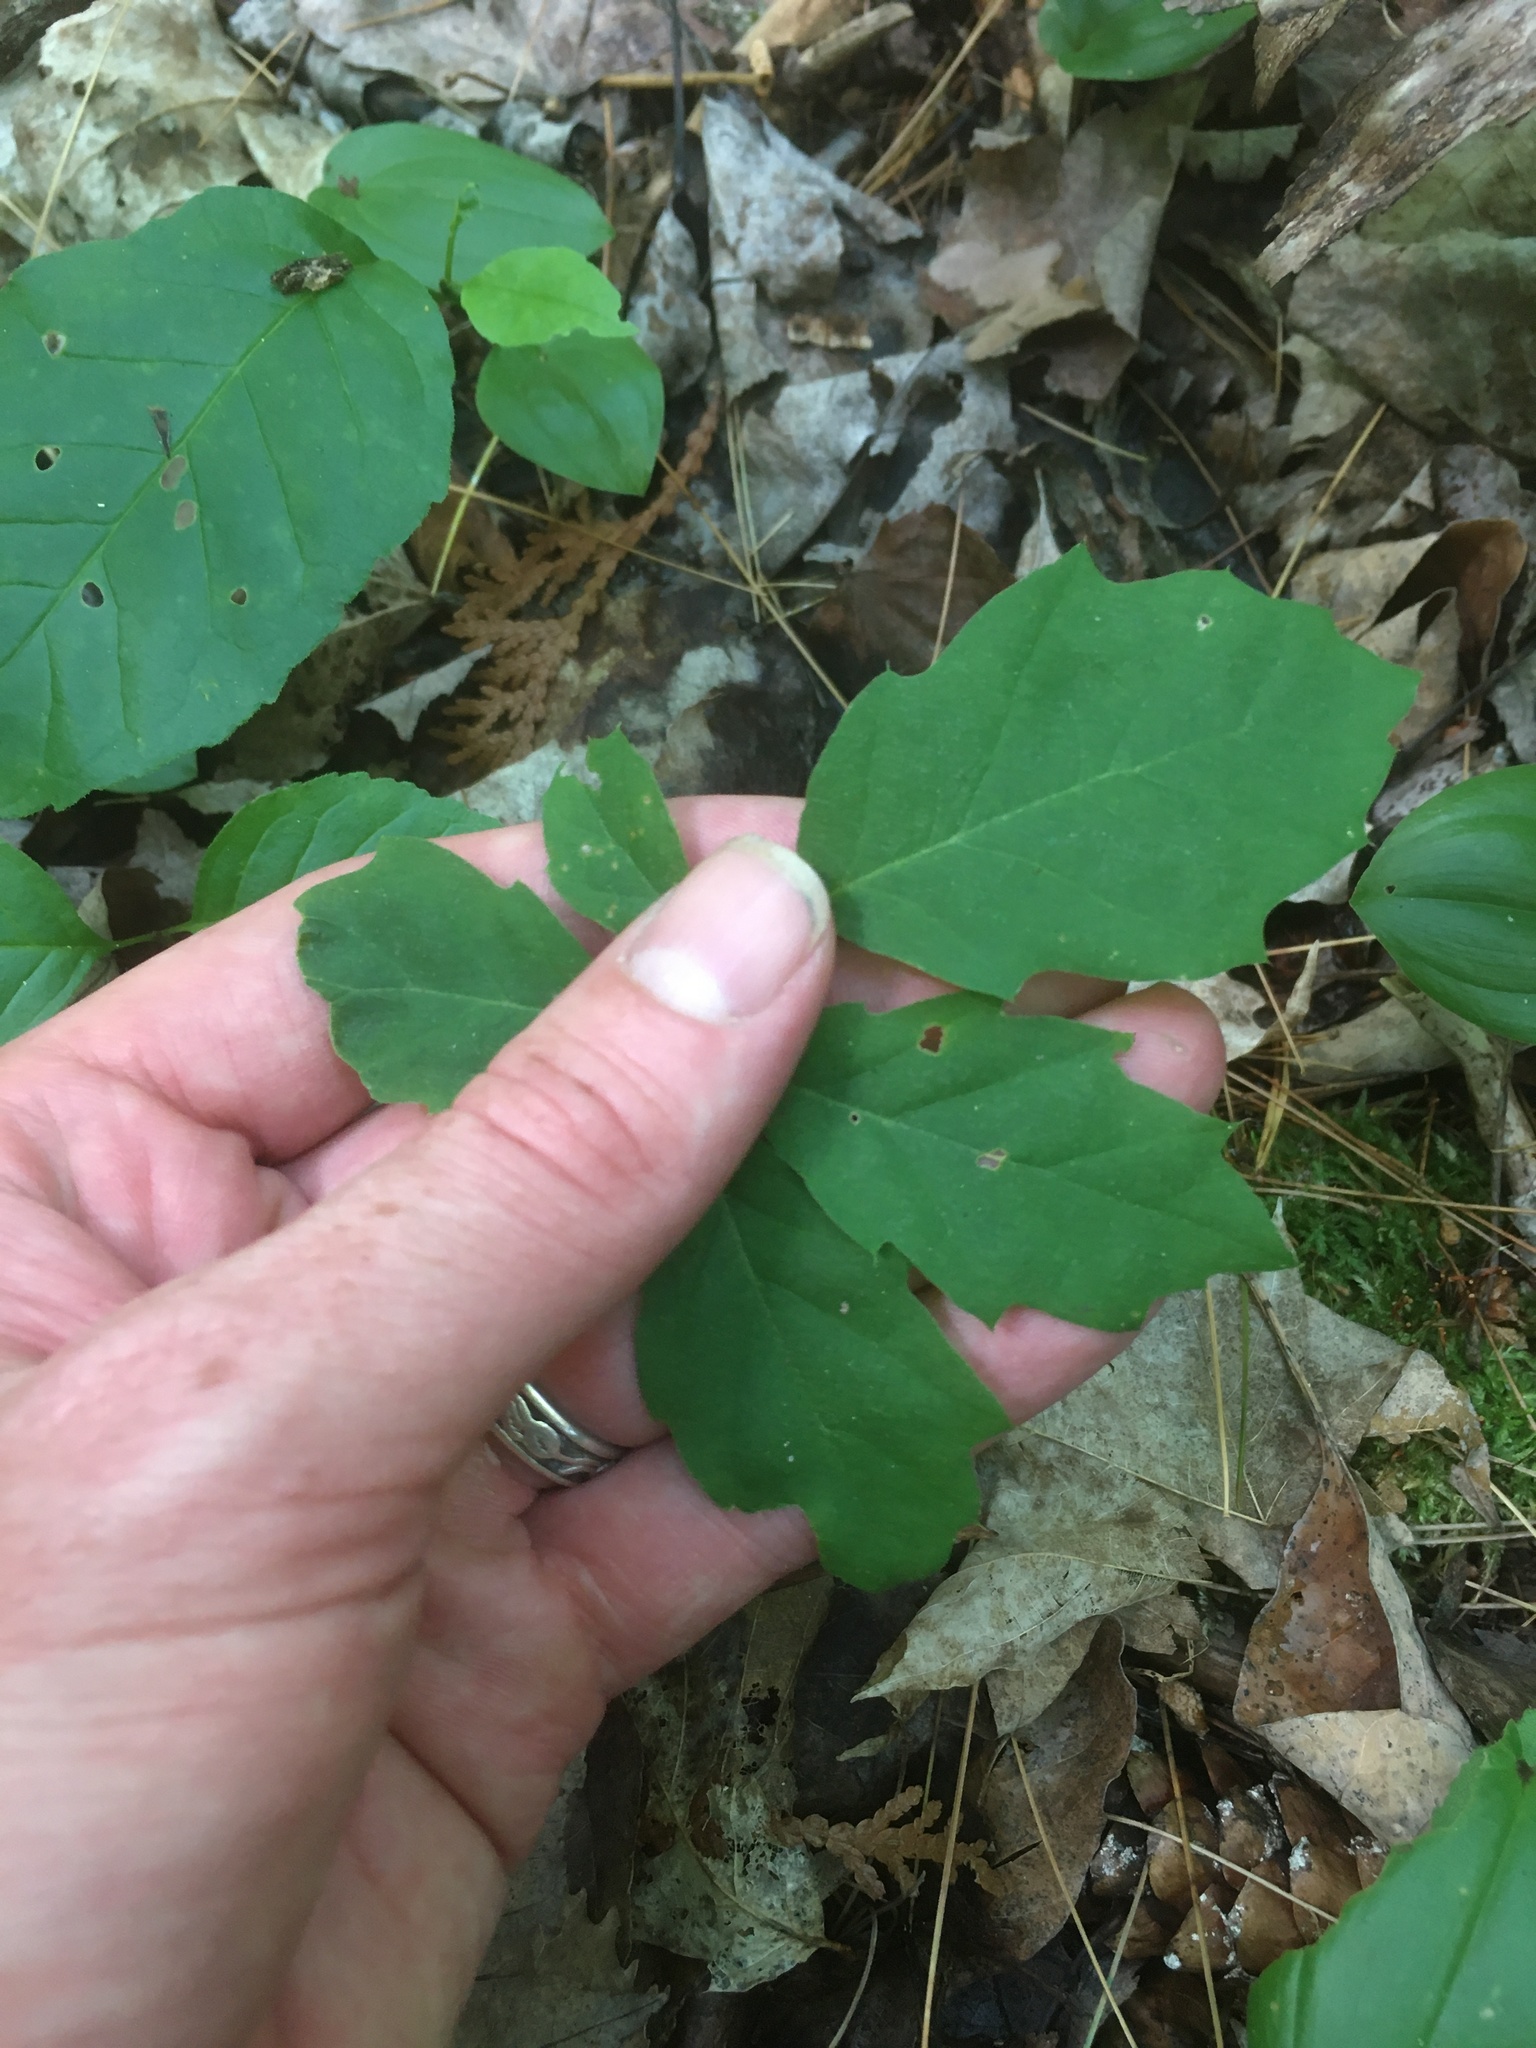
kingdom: Plantae
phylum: Tracheophyta
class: Magnoliopsida
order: Fagales
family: Fagaceae
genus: Quercus
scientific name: Quercus rubra
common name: Red oak
